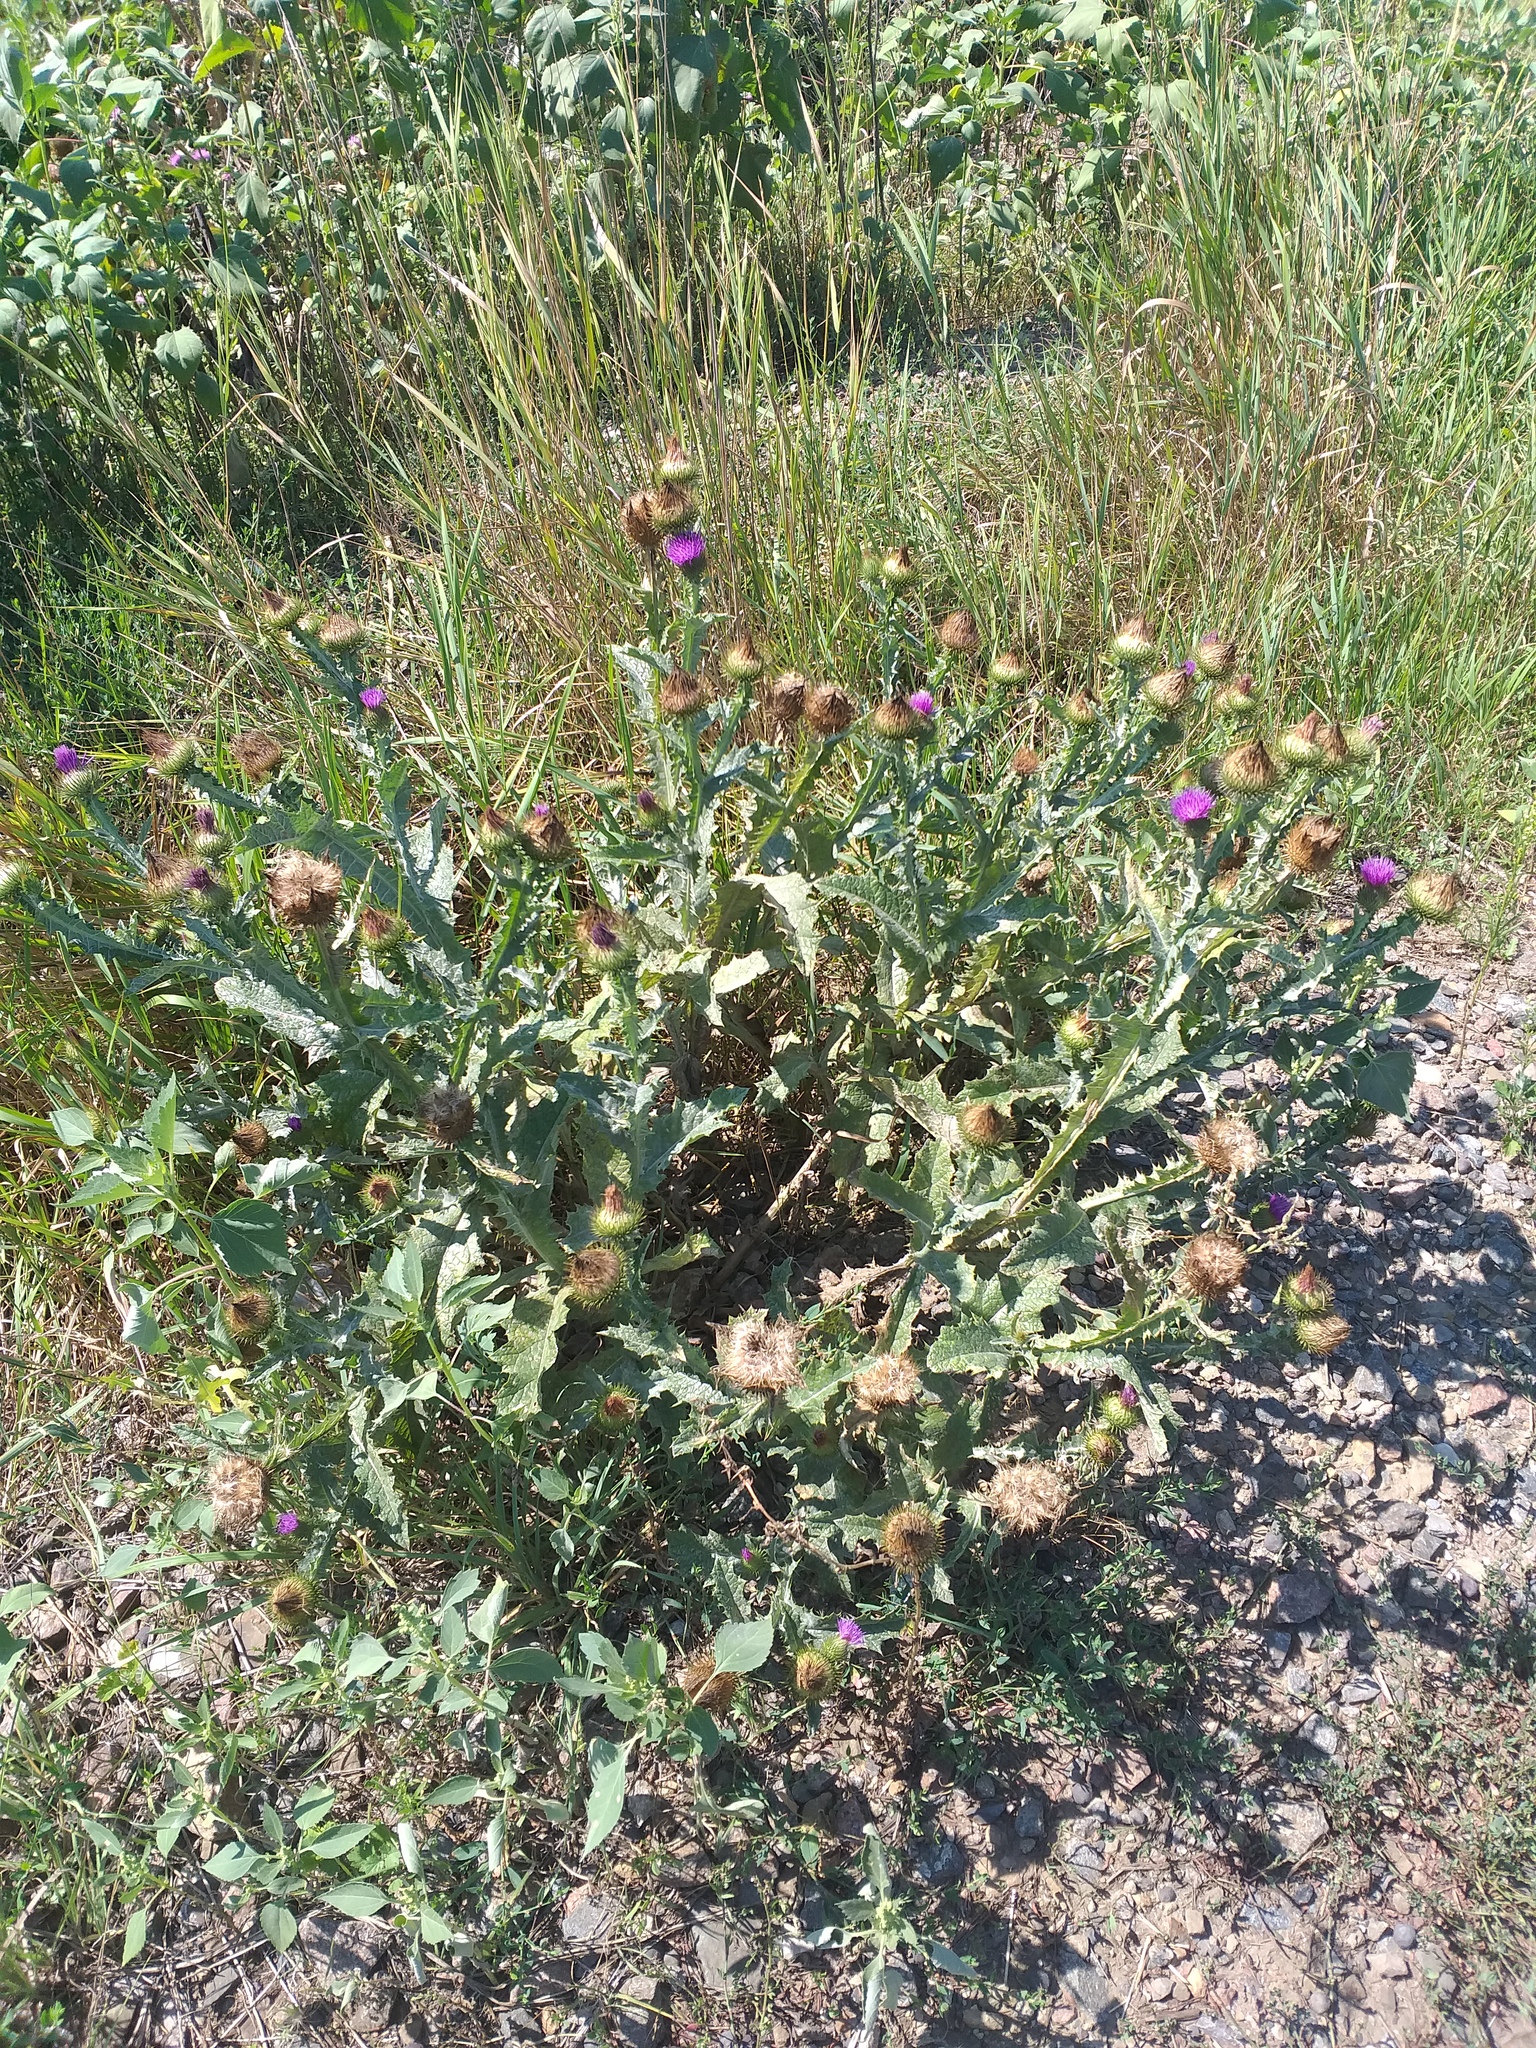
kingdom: Plantae
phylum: Tracheophyta
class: Magnoliopsida
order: Asterales
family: Asteraceae
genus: Onopordum
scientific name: Onopordum acanthium
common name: Scotch thistle
